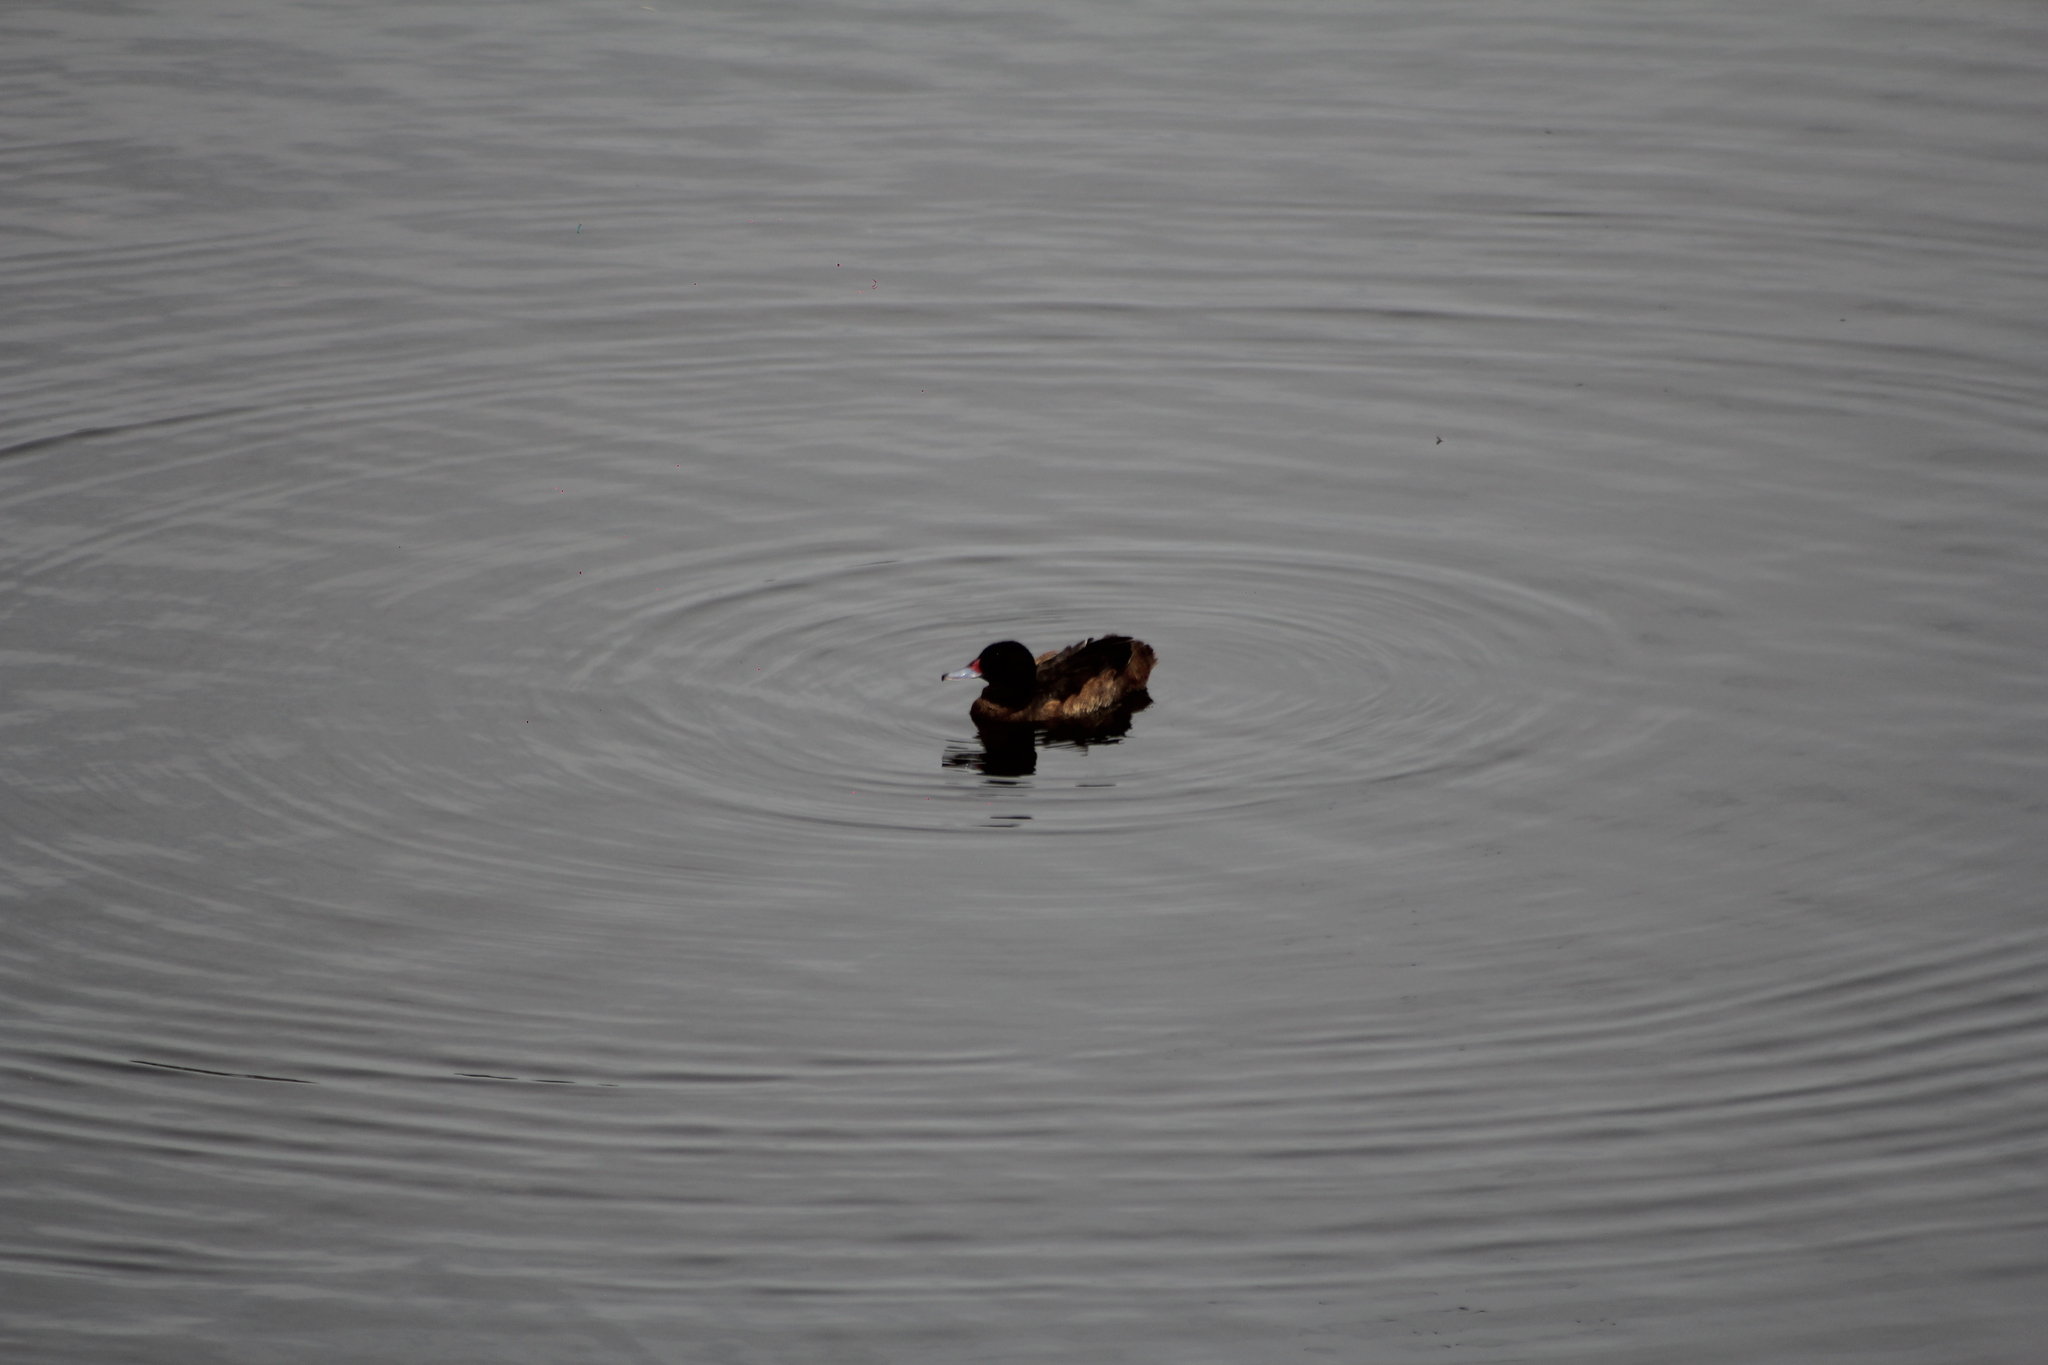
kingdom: Animalia
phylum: Chordata
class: Aves
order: Anseriformes
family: Anatidae
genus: Heteronetta
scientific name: Heteronetta atricapilla
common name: Black-headed duck
